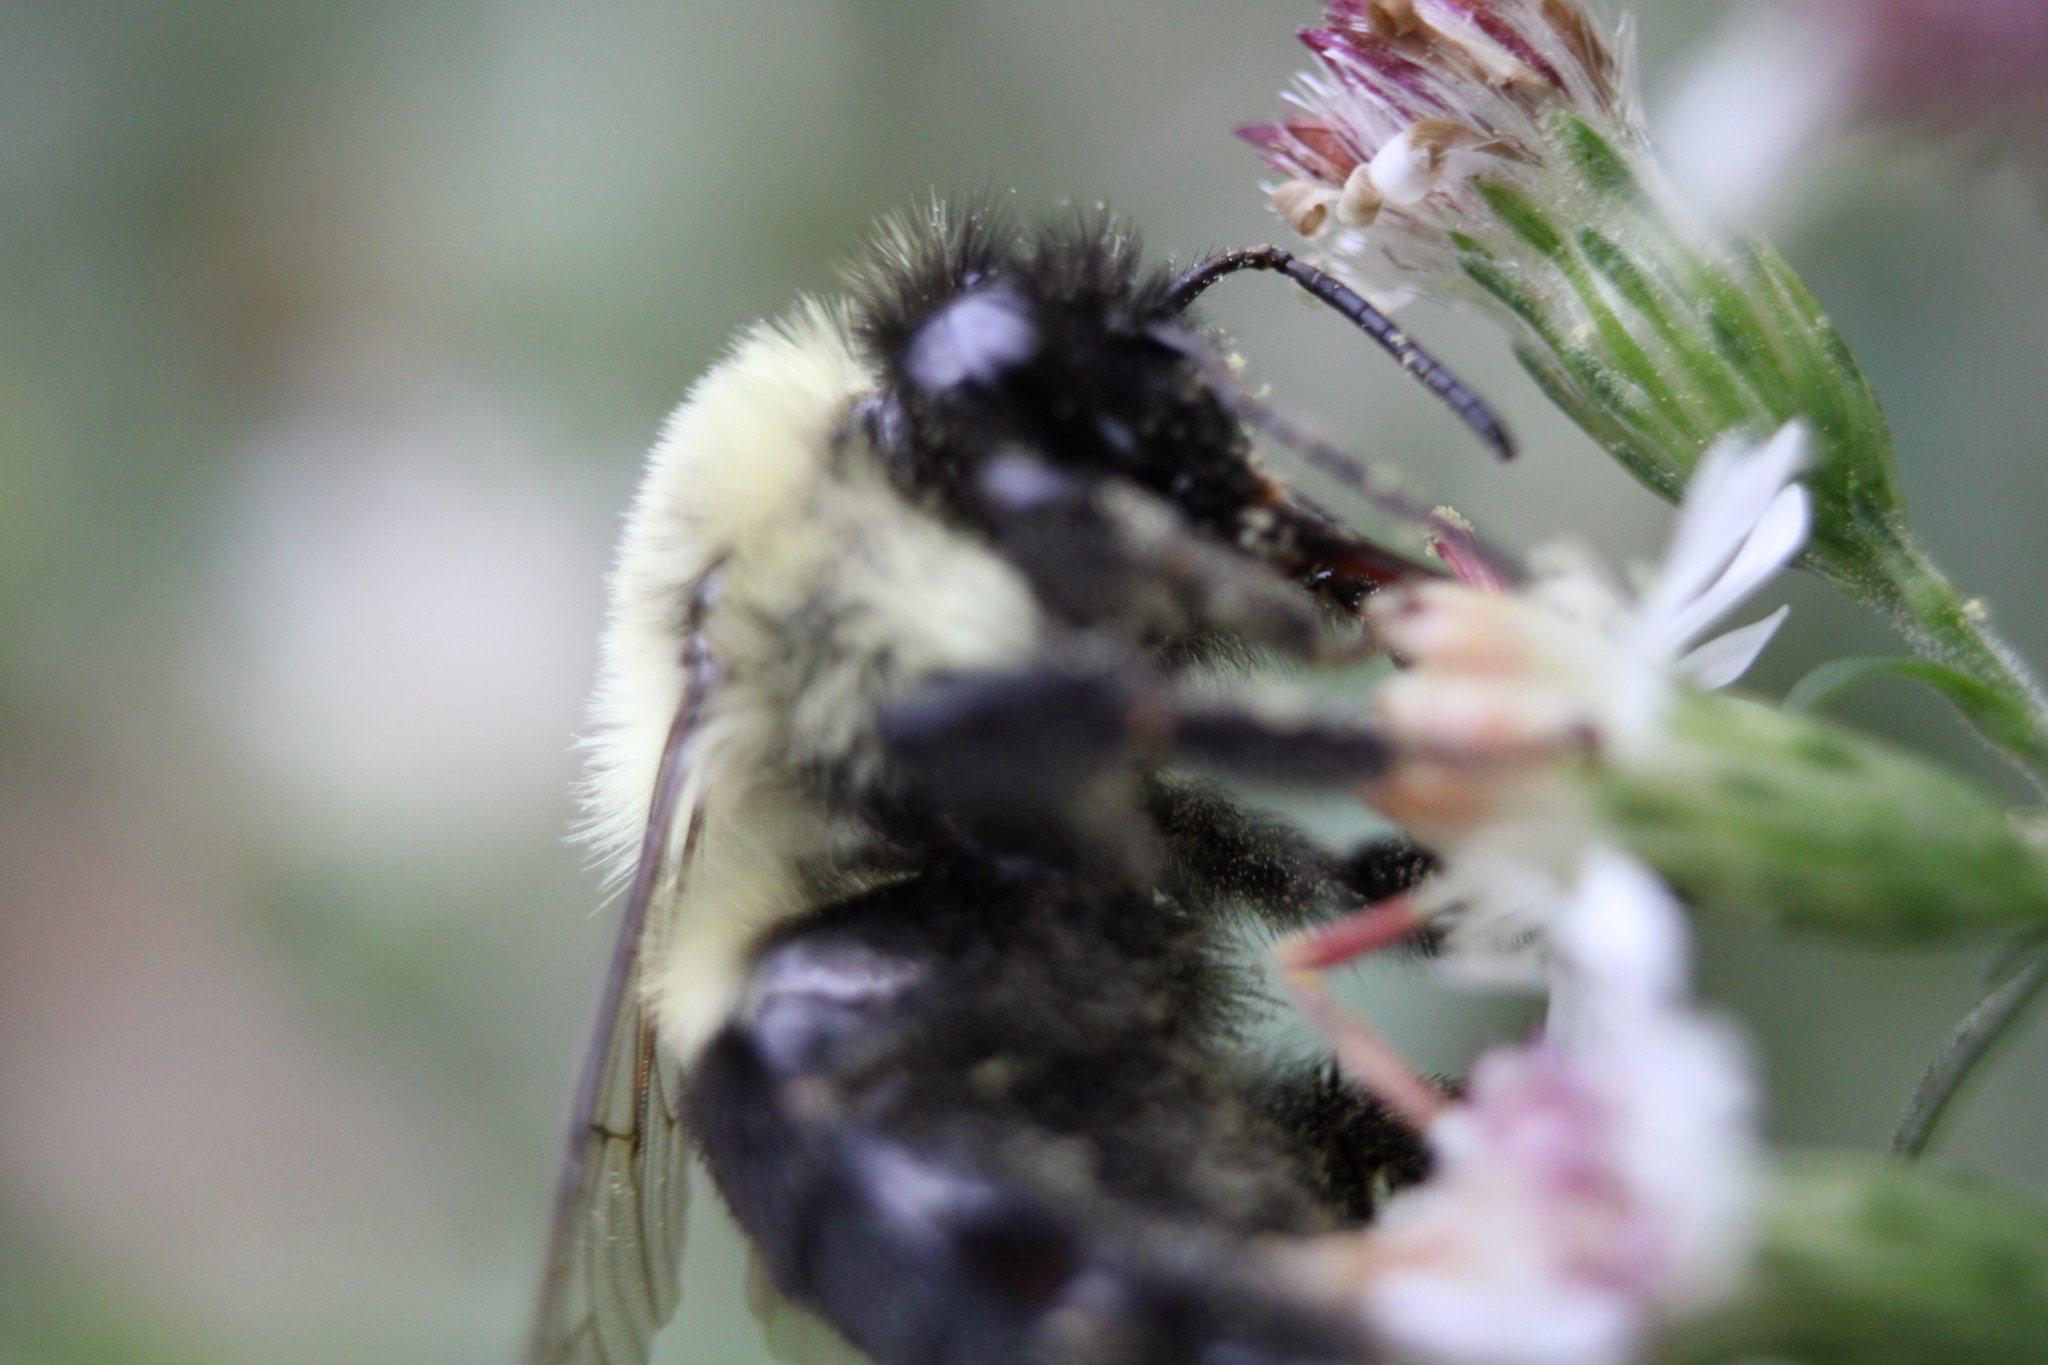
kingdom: Animalia
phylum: Arthropoda
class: Insecta
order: Hymenoptera
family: Apidae
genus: Bombus
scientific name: Bombus impatiens
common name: Common eastern bumble bee
